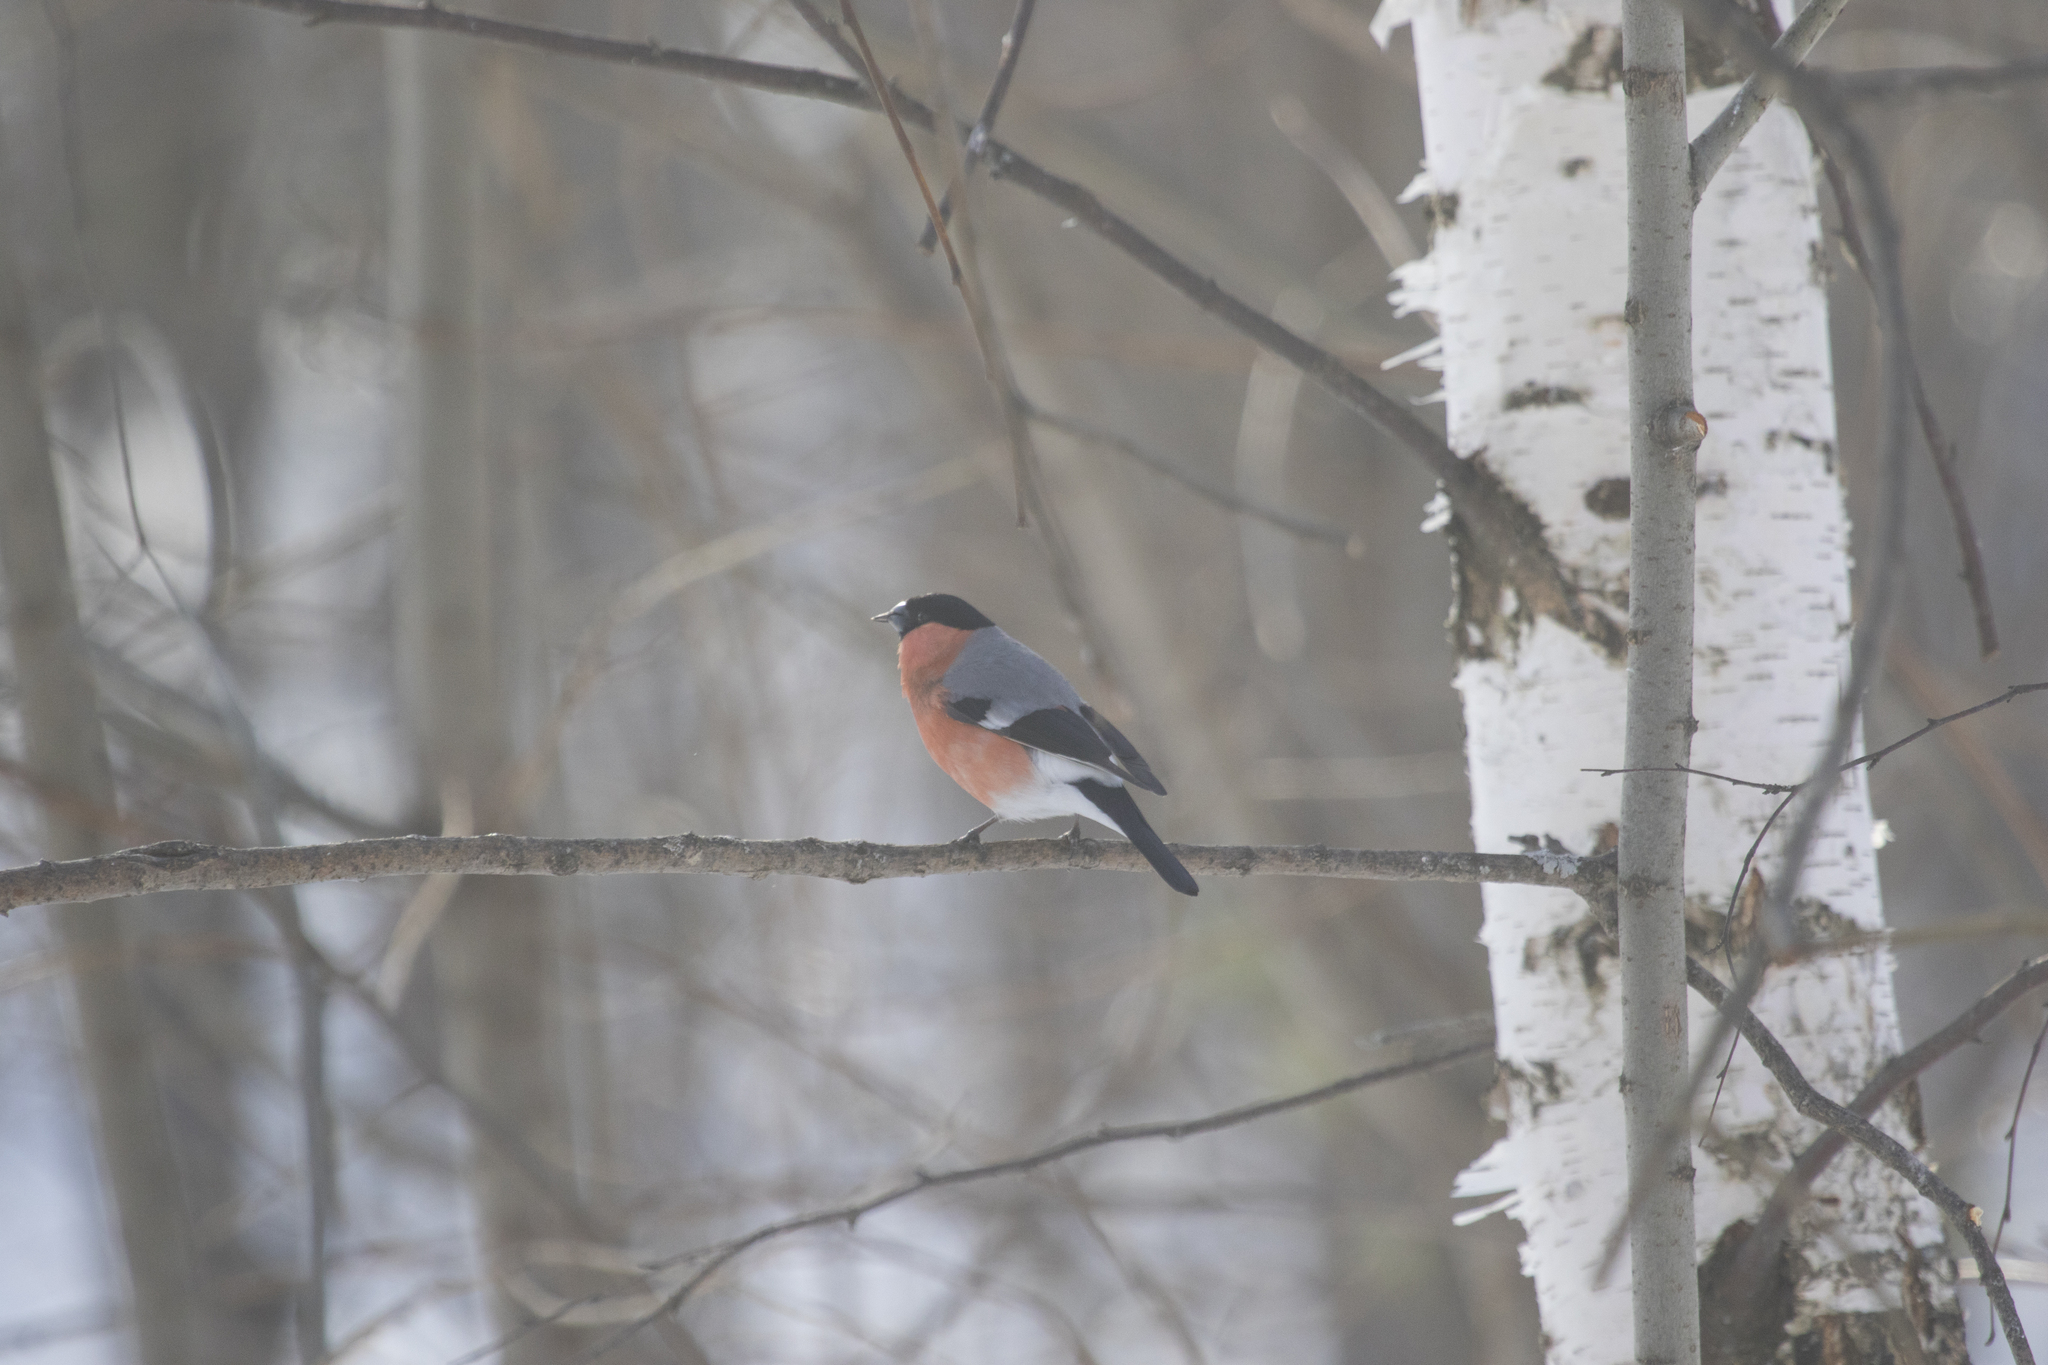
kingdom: Animalia
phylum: Chordata
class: Aves
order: Passeriformes
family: Fringillidae
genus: Pyrrhula
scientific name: Pyrrhula pyrrhula
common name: Eurasian bullfinch
